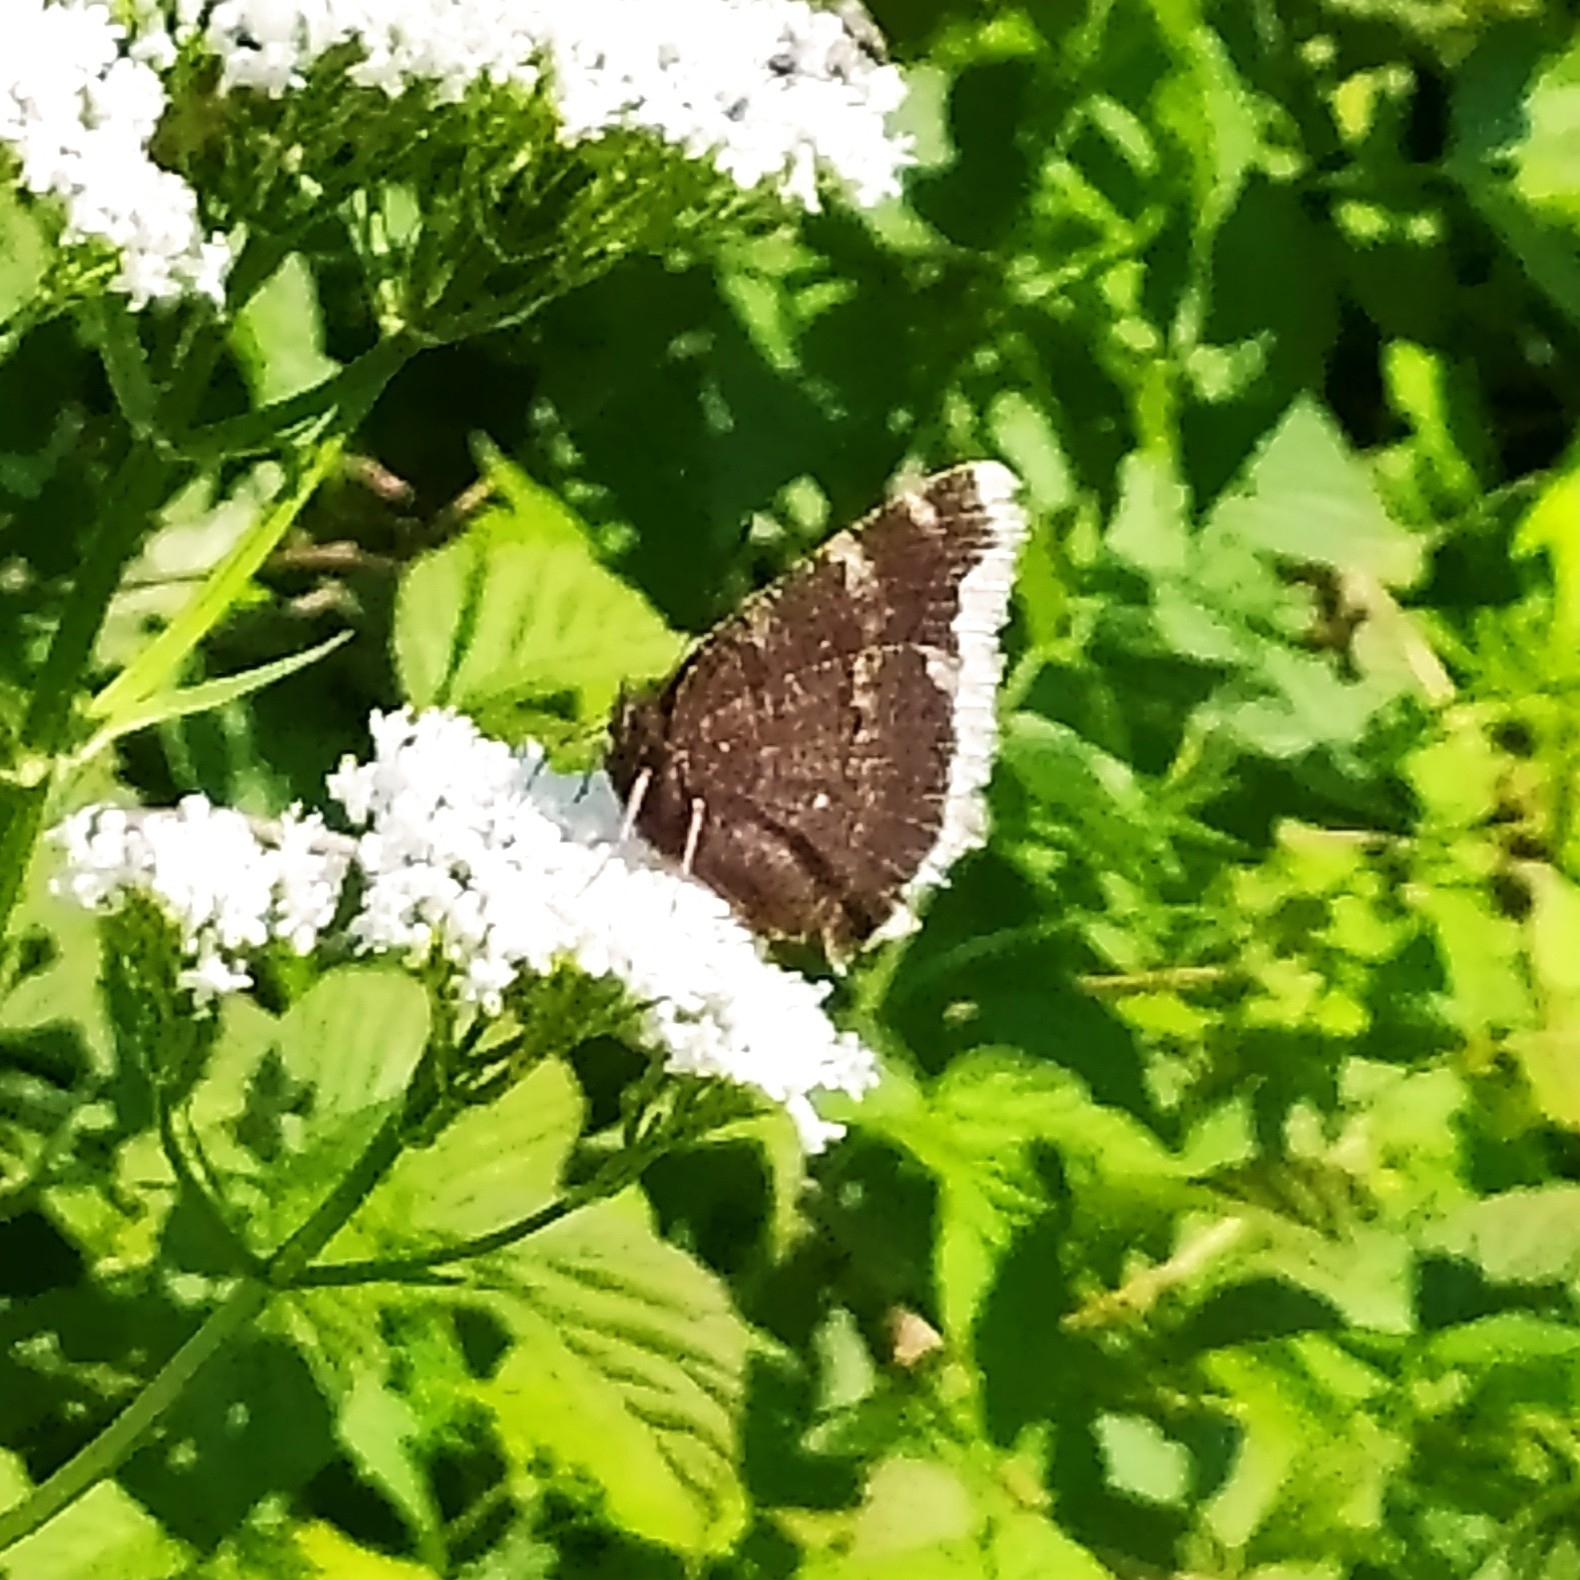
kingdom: Animalia
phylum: Arthropoda
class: Insecta
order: Lepidoptera
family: Nymphalidae
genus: Nymphalis
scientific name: Nymphalis antiopa
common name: Camberwell beauty
